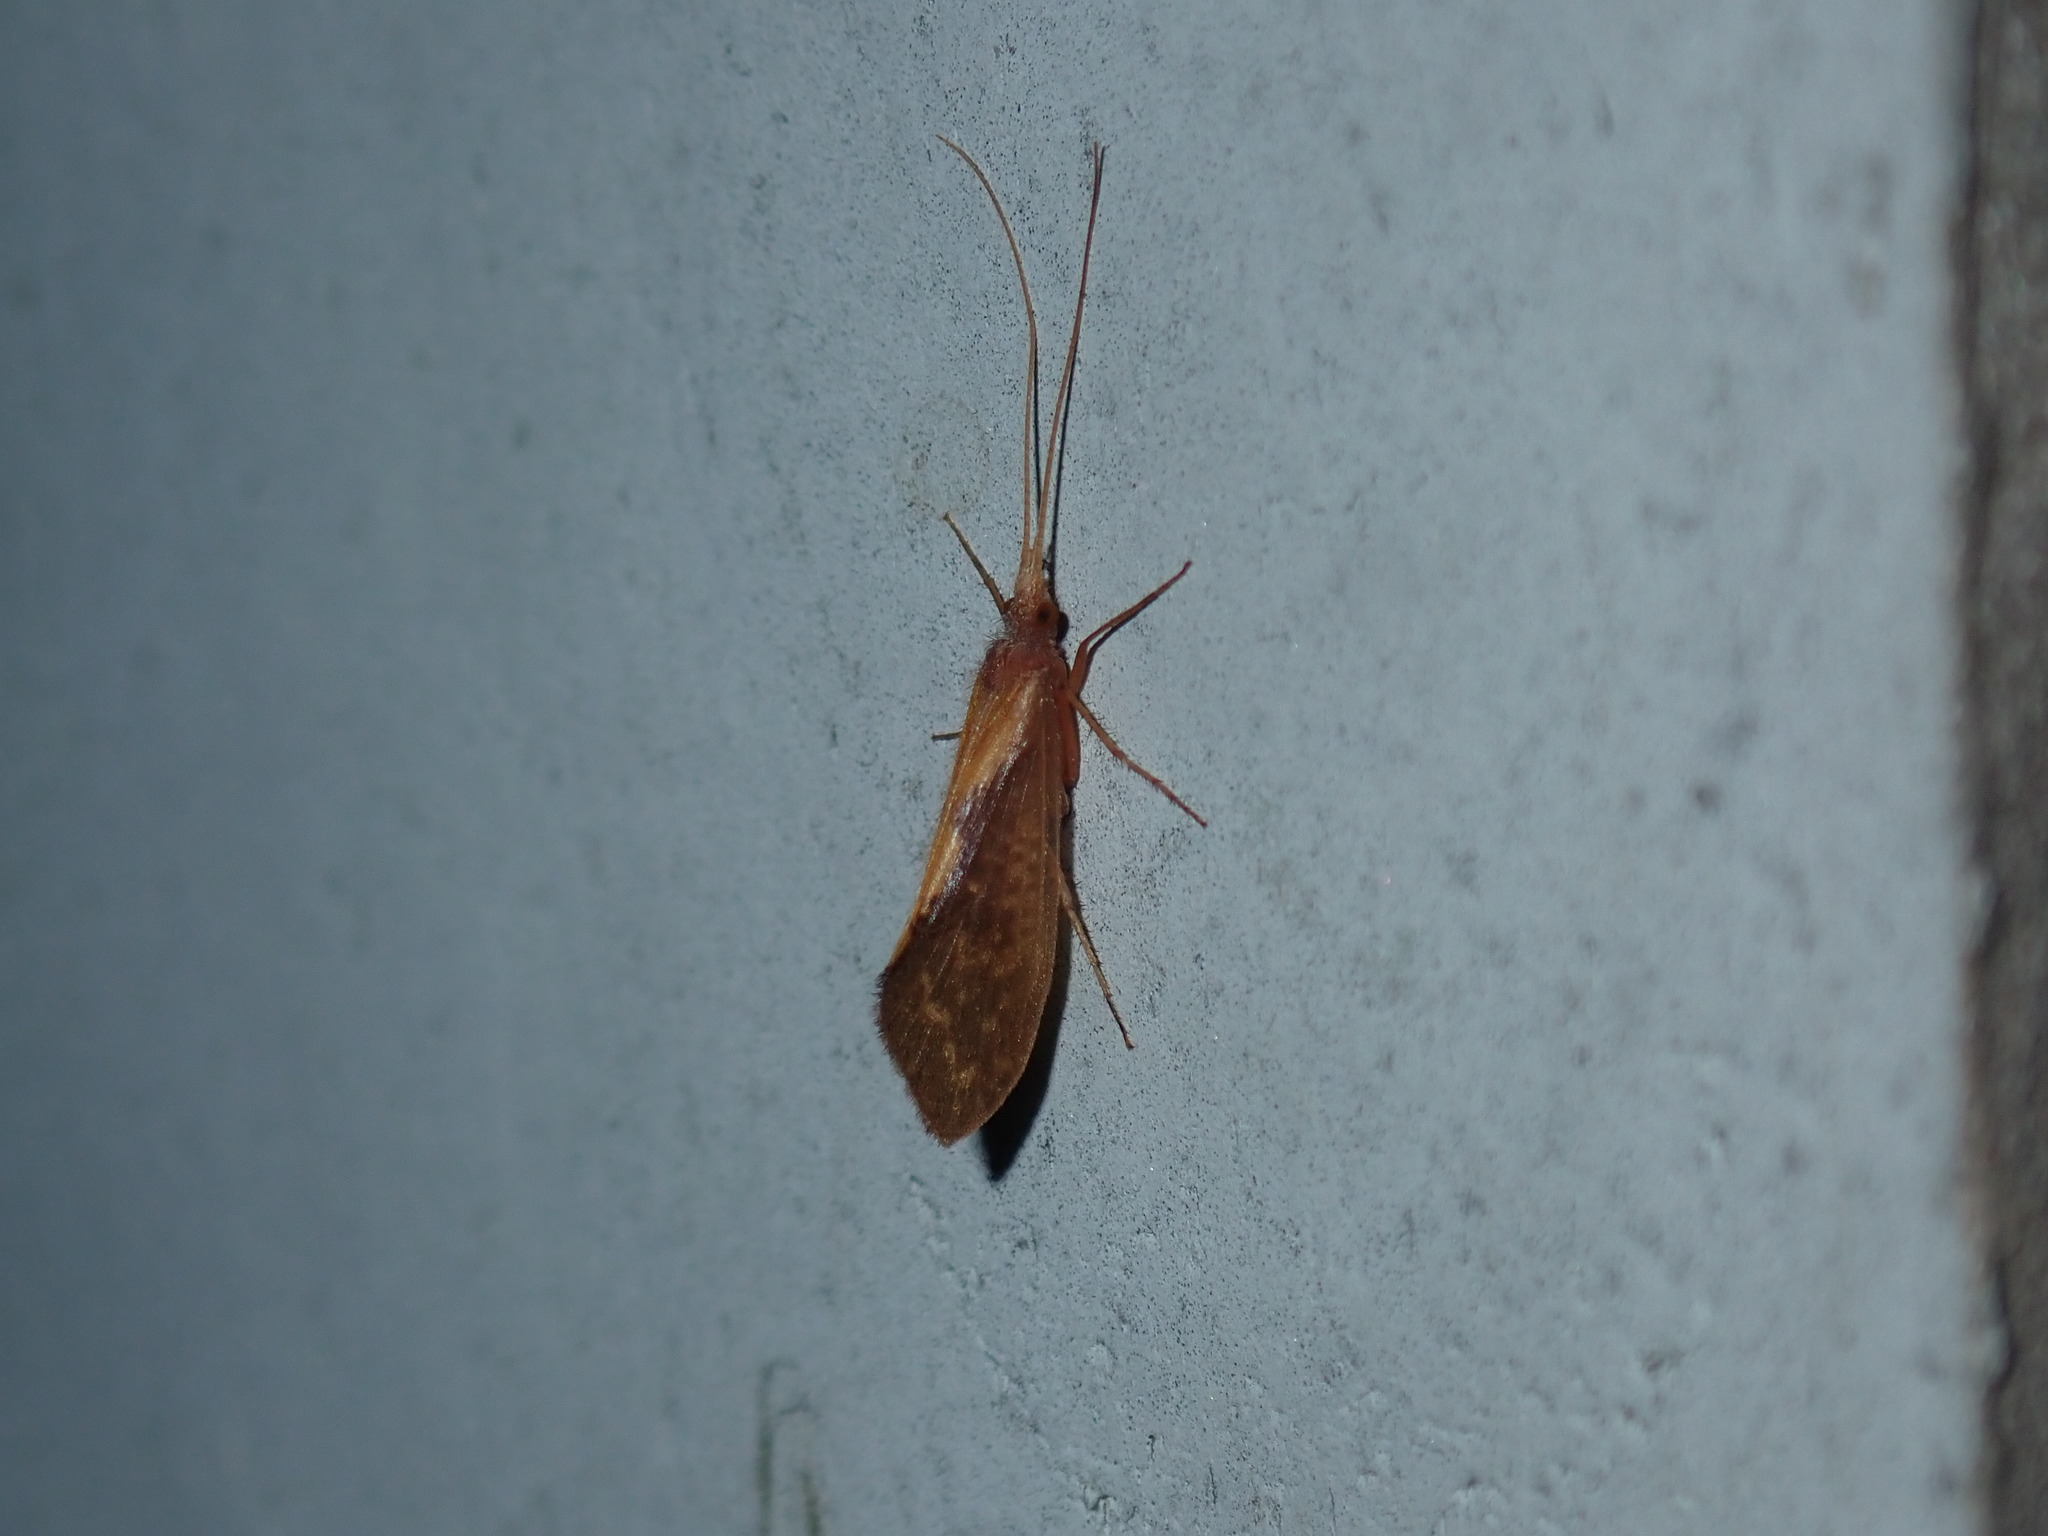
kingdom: Animalia
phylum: Arthropoda
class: Insecta
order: Trichoptera
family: Uenoidae
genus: Neophylax
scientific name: Neophylax
